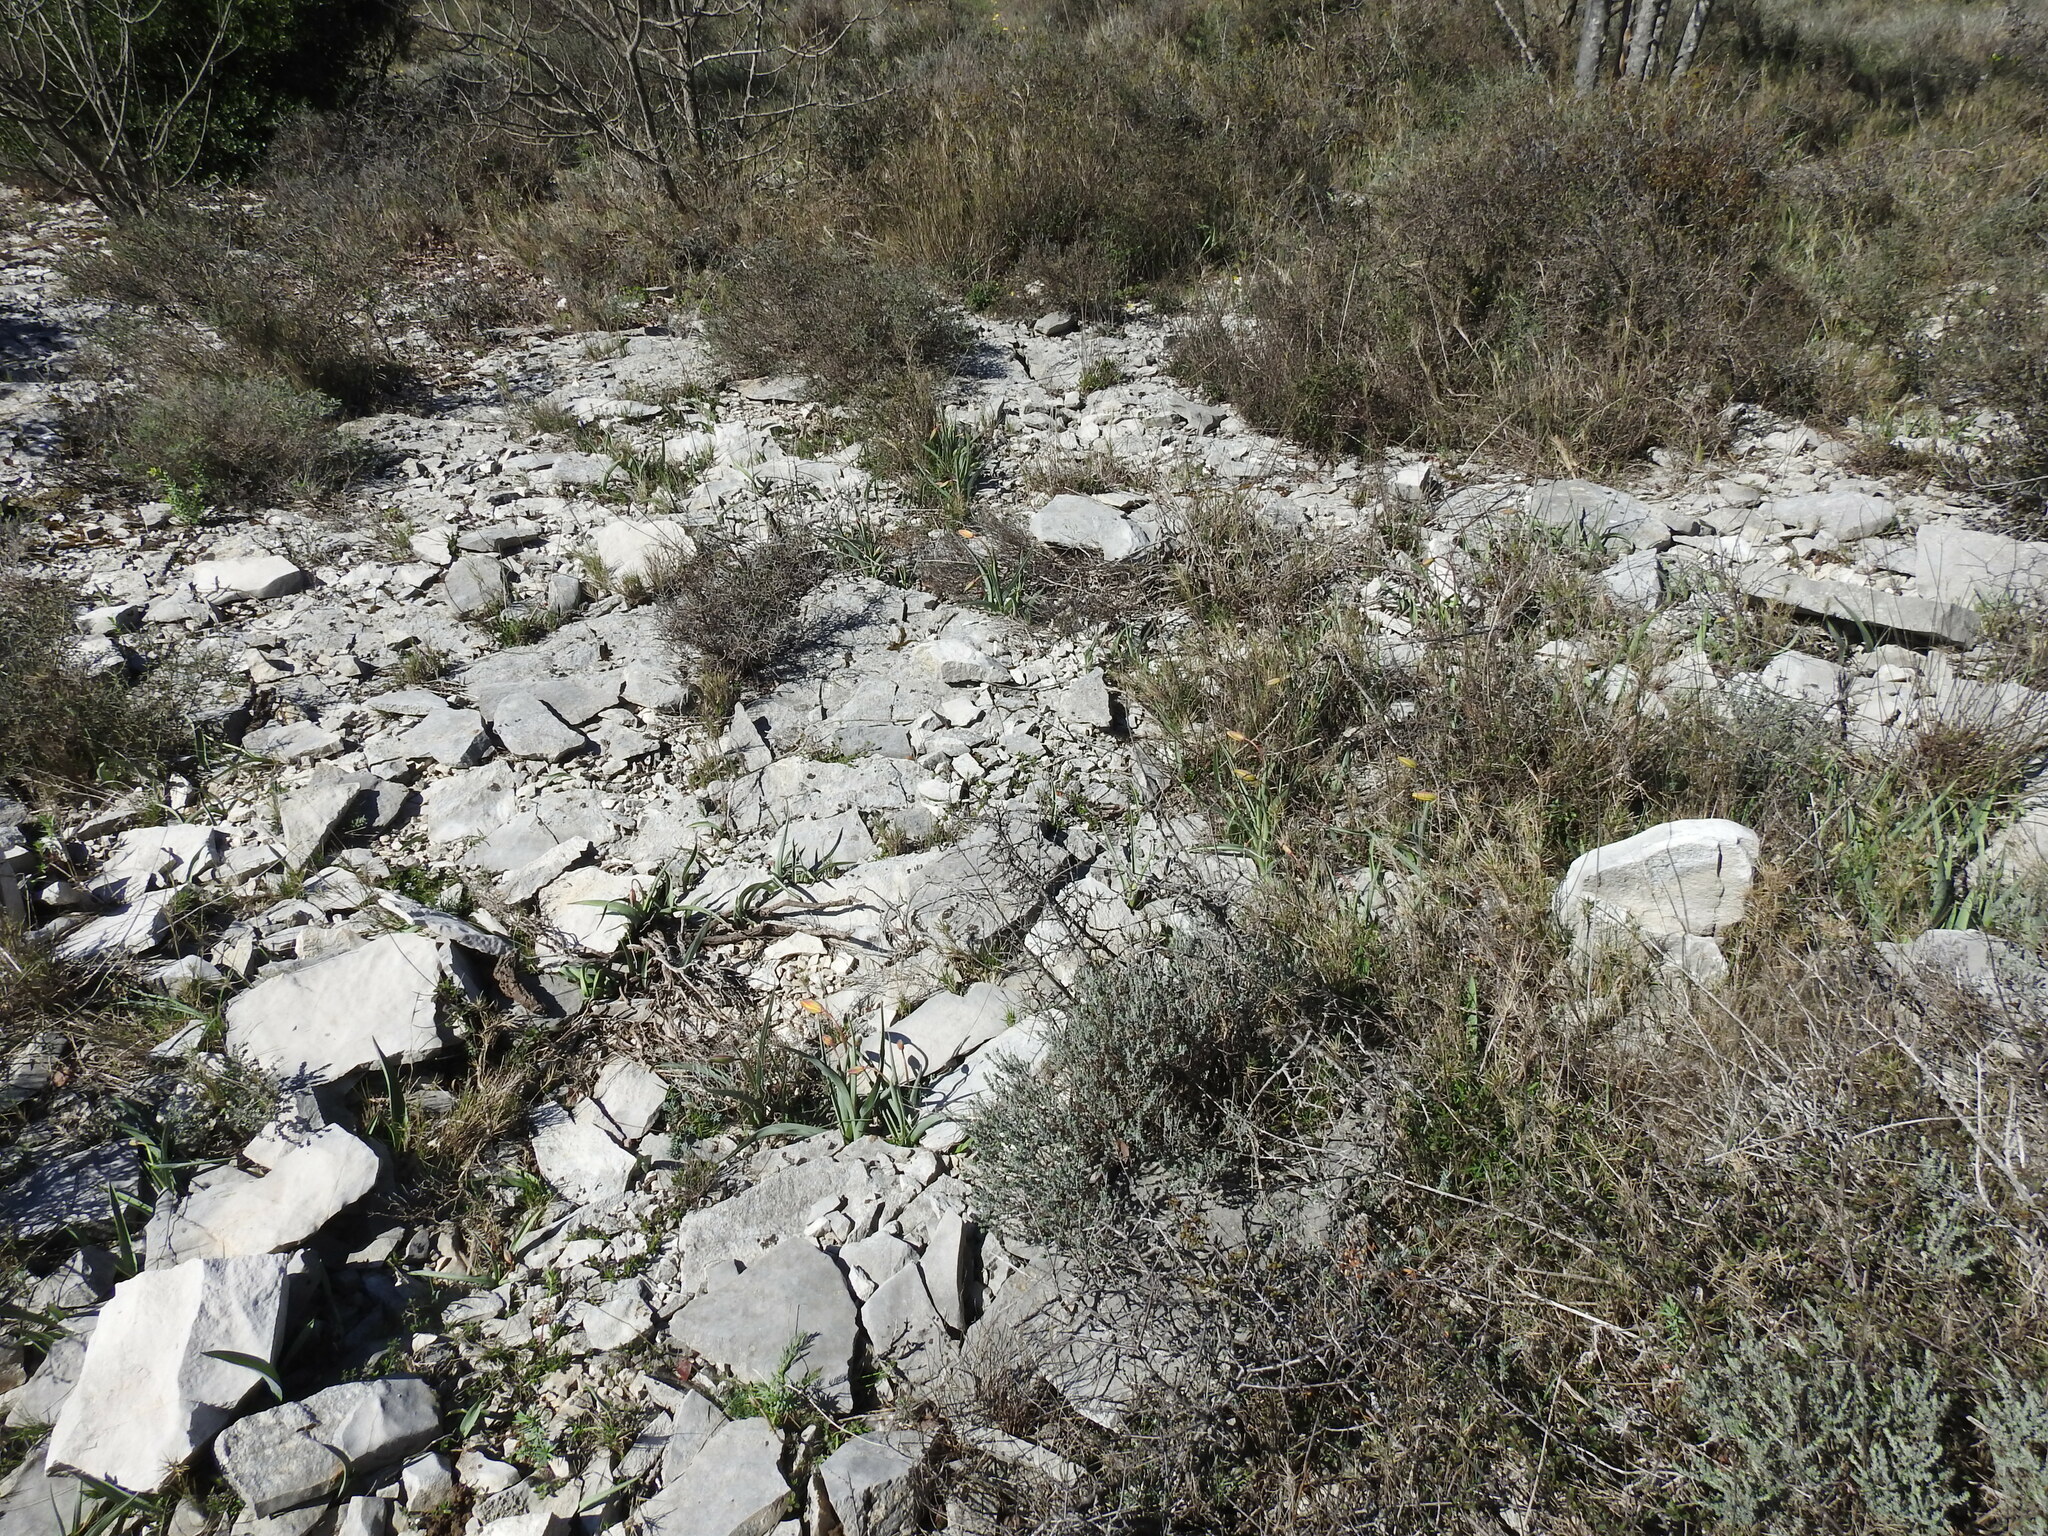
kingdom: Plantae
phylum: Tracheophyta
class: Liliopsida
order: Liliales
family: Liliaceae
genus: Tulipa
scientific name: Tulipa sylvestris
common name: Wild tulip
